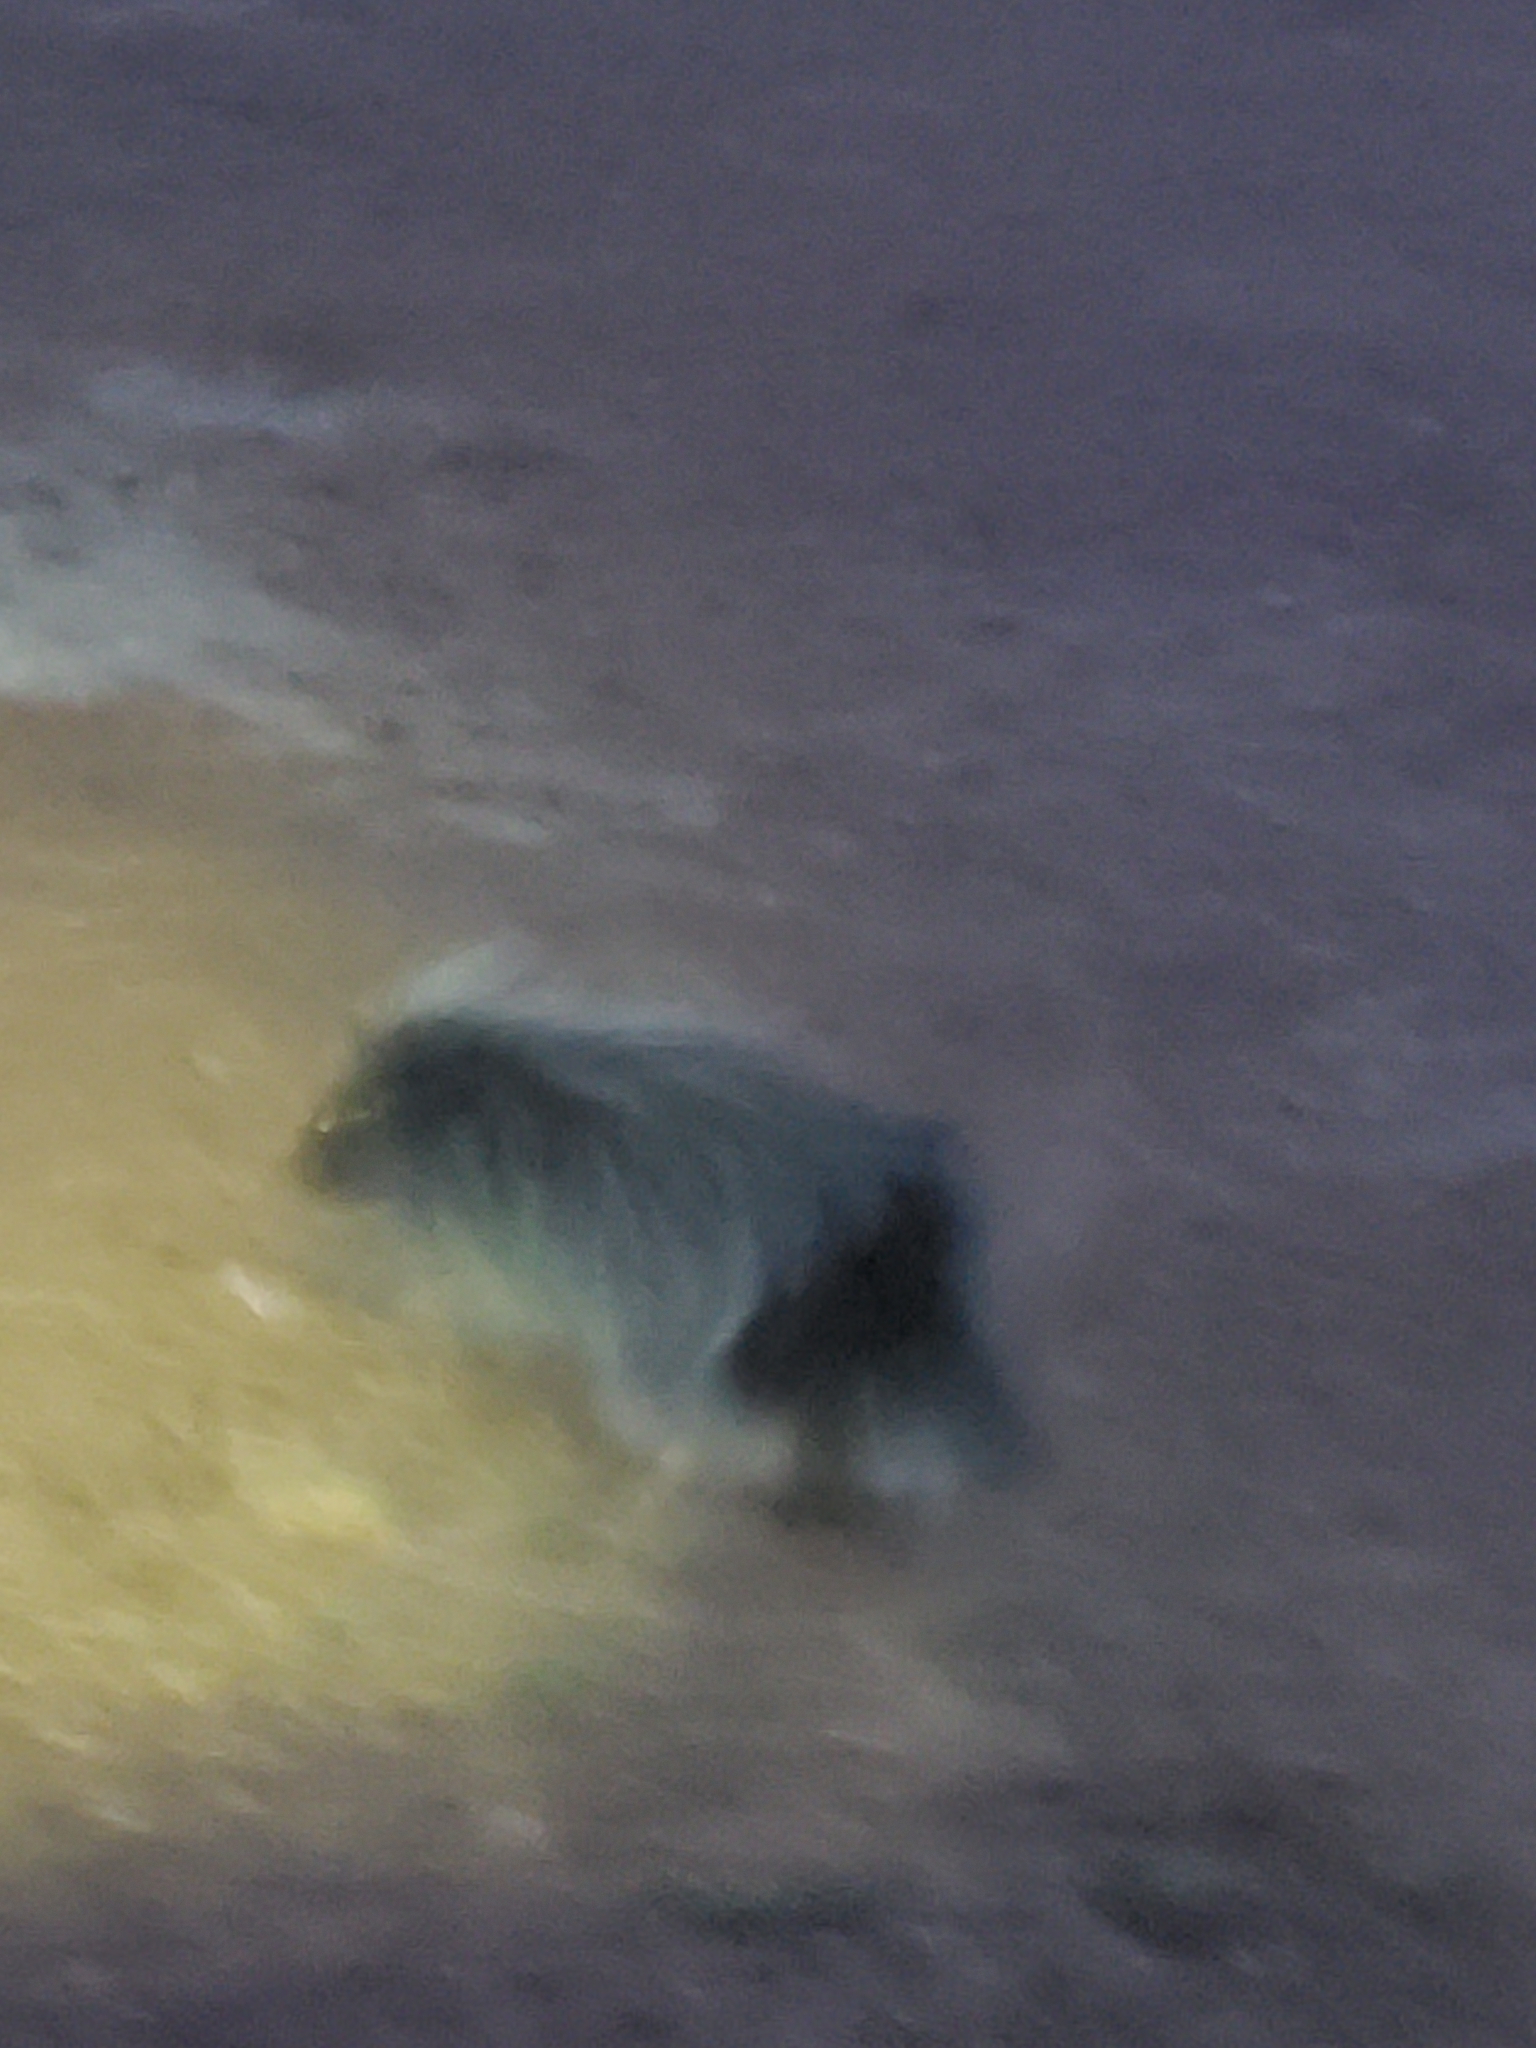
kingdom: Animalia
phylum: Chordata
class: Mammalia
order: Rodentia
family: Erethizontidae
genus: Erethizon
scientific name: Erethizon dorsatus
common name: North american porcupine
